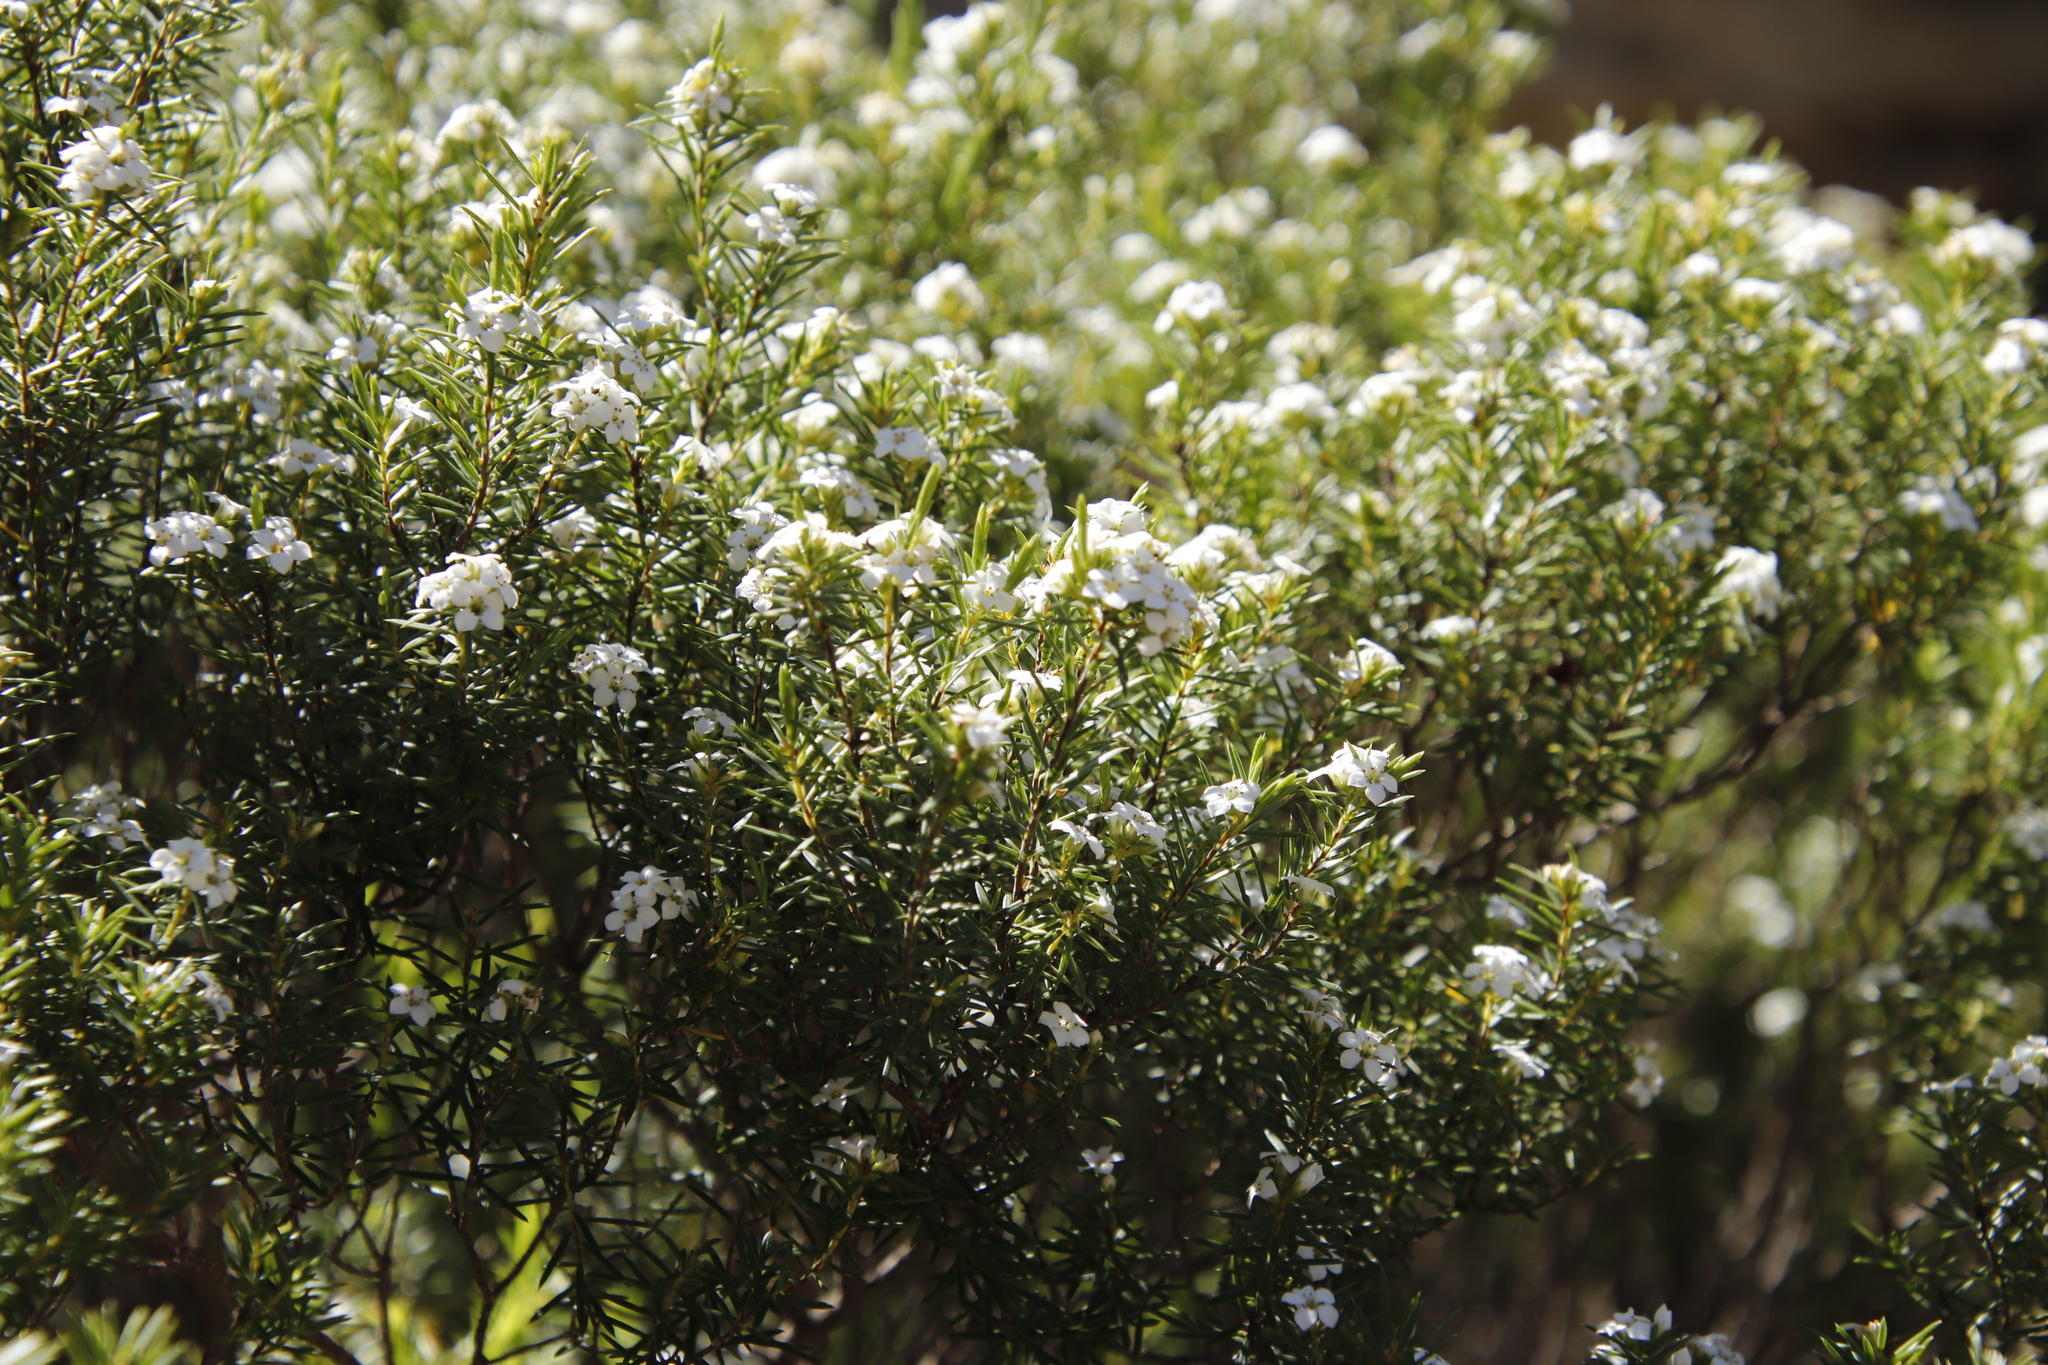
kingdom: Plantae
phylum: Tracheophyta
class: Magnoliopsida
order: Sapindales
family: Rutaceae
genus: Coleonema
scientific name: Coleonema album
